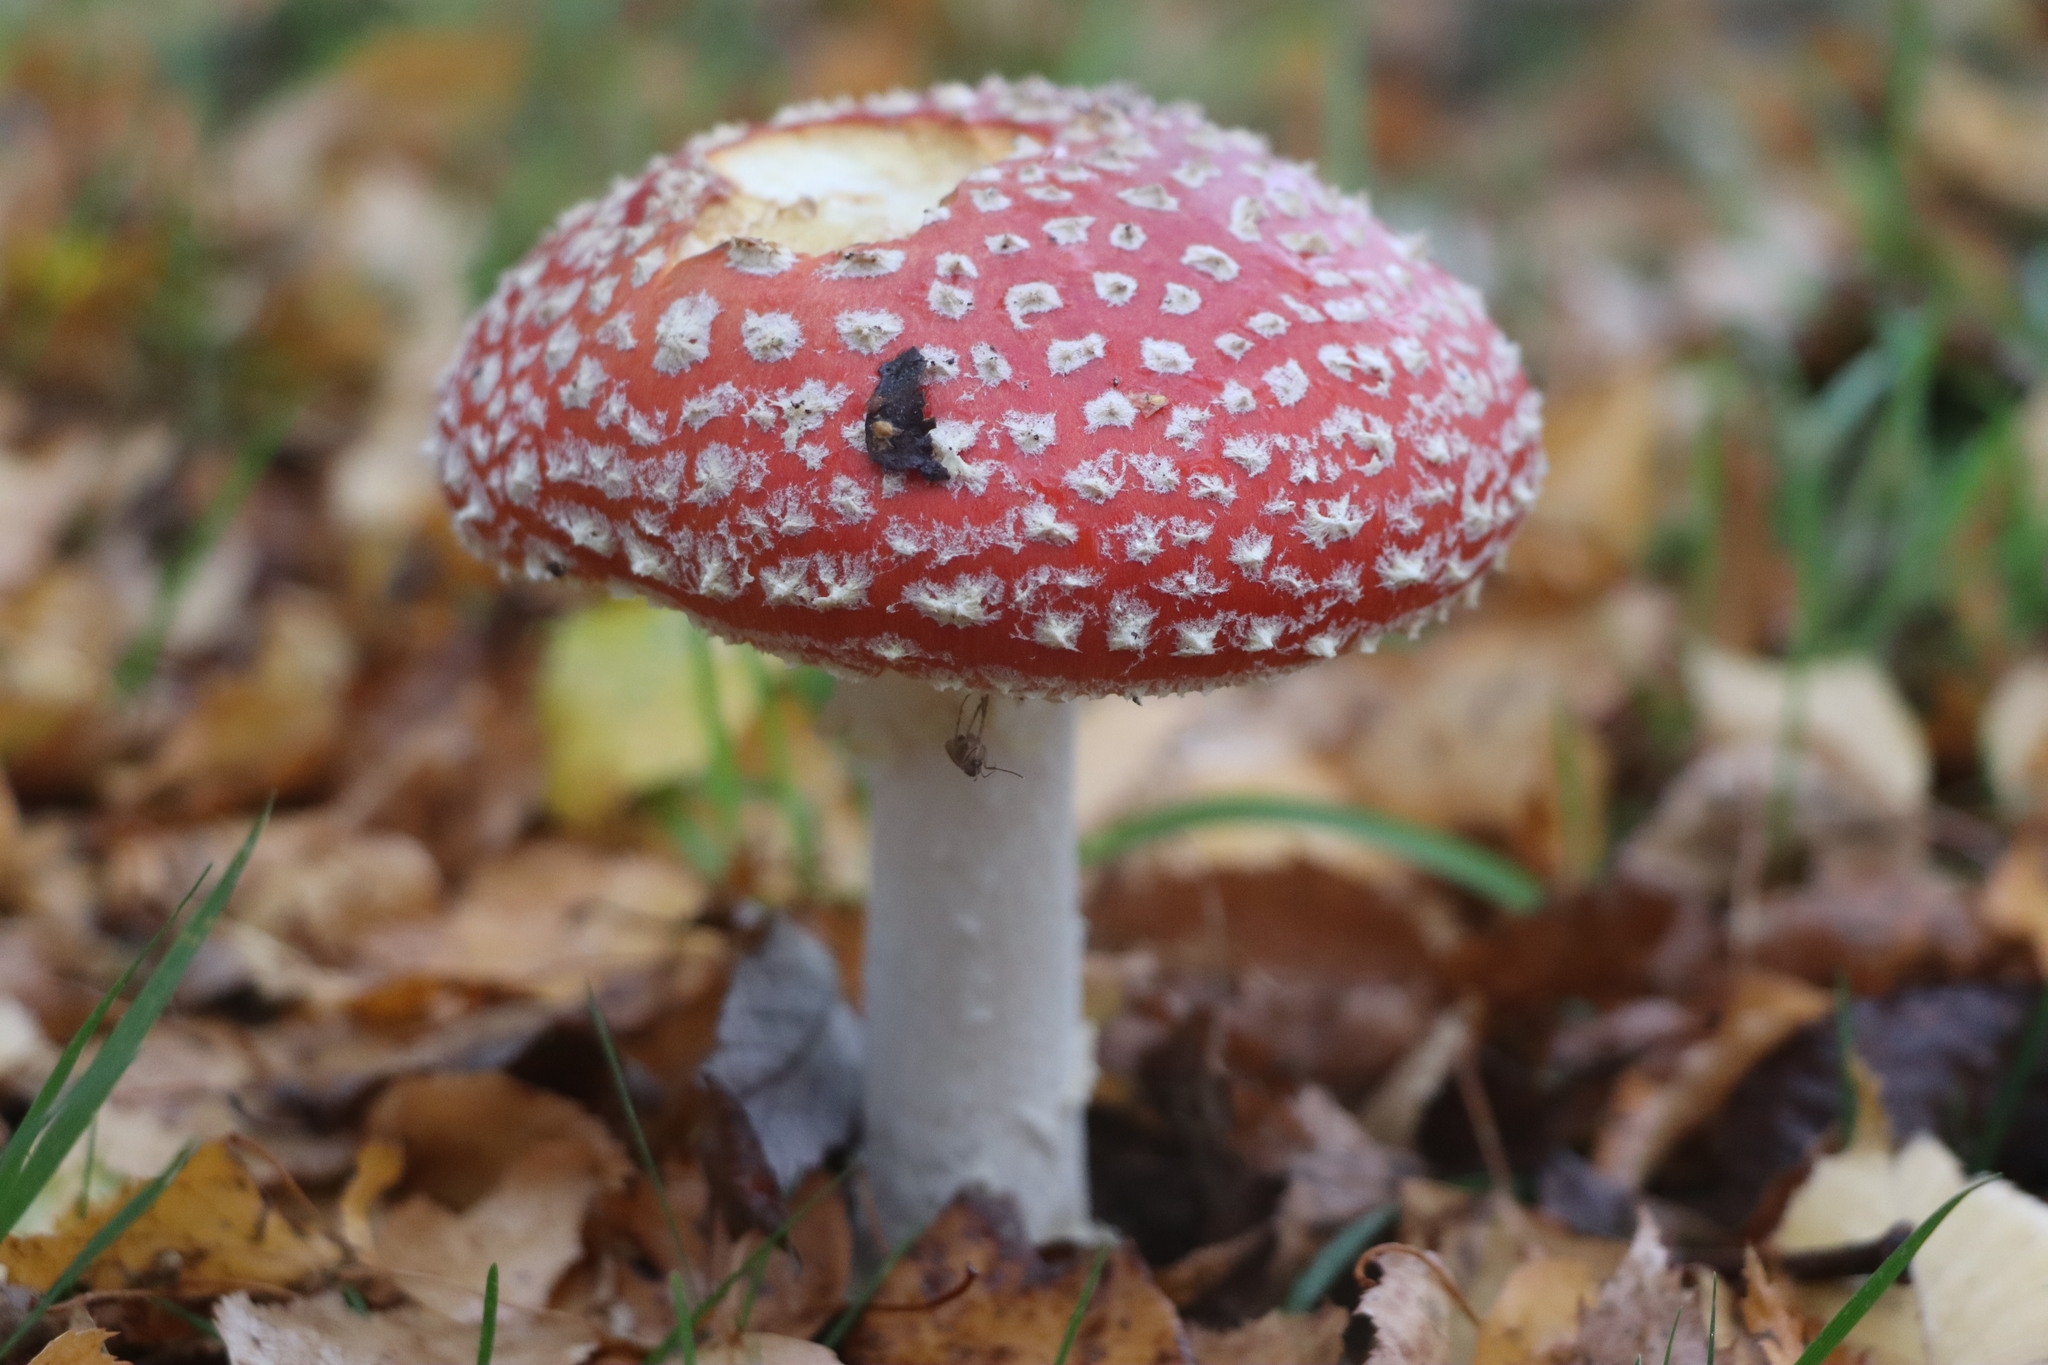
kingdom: Fungi
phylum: Basidiomycota
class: Agaricomycetes
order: Agaricales
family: Amanitaceae
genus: Amanita
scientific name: Amanita muscaria
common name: Fly agaric
